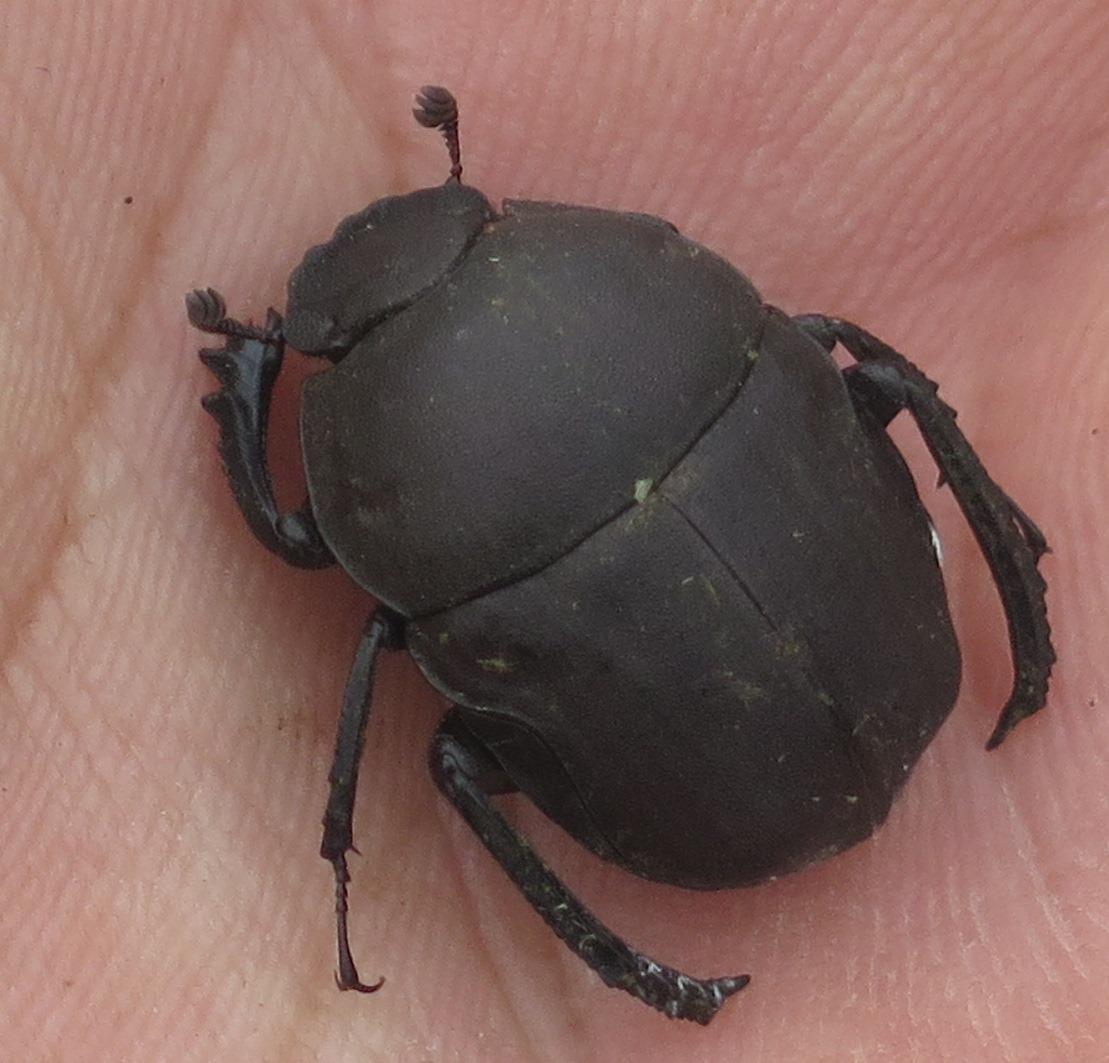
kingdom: Animalia
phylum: Arthropoda
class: Insecta
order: Coleoptera
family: Scarabaeidae
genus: Garreta
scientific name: Garreta unicolor
